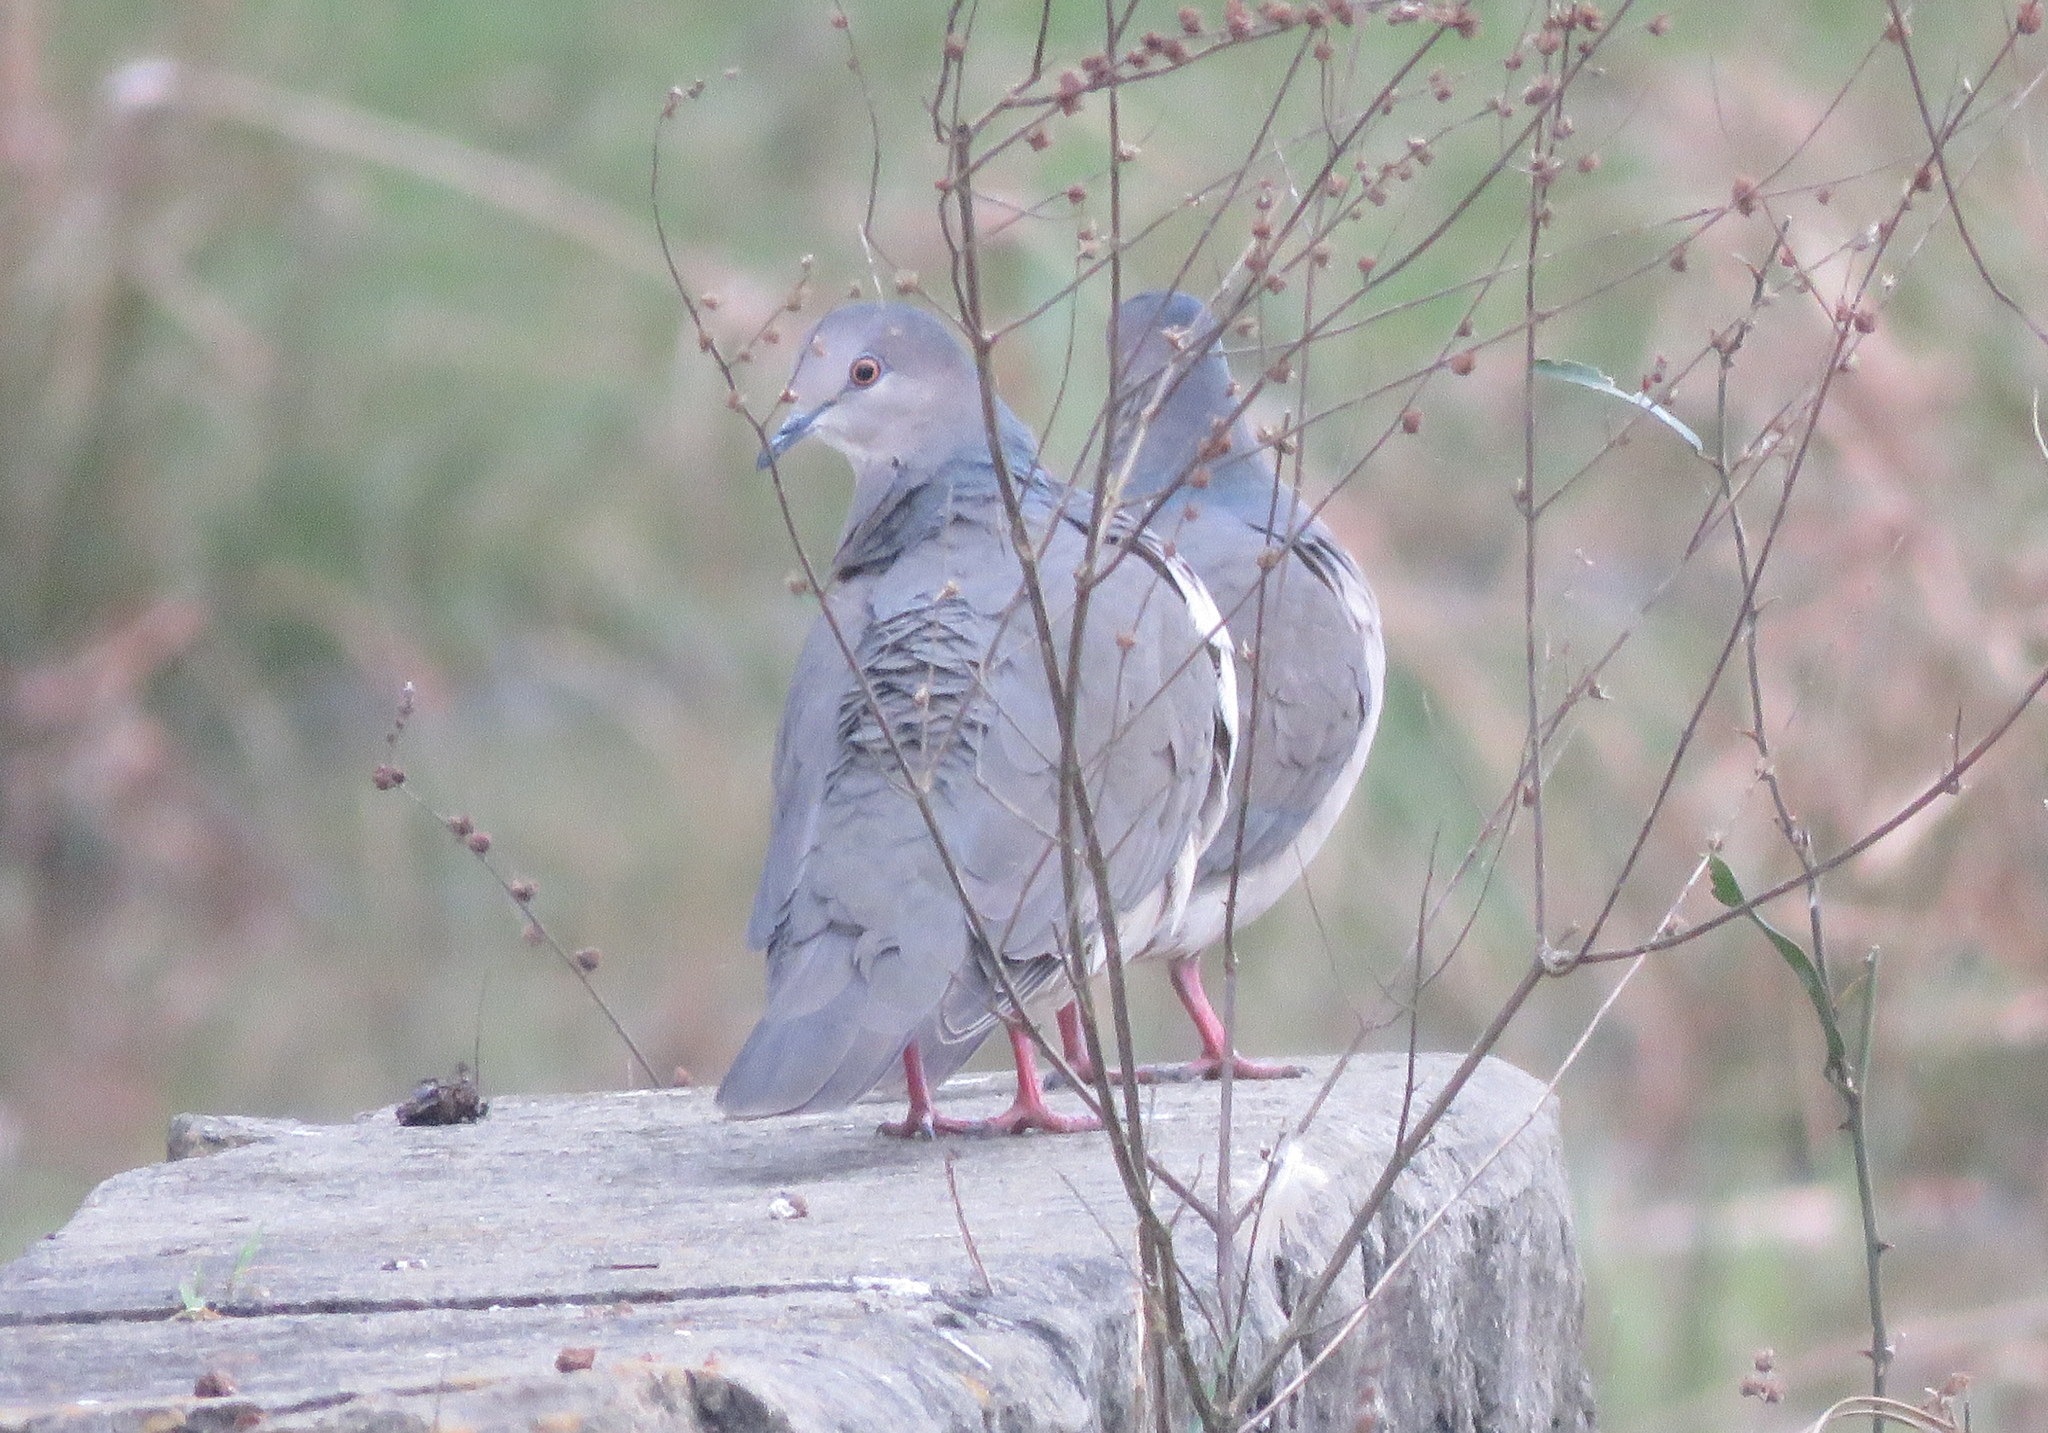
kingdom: Animalia
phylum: Chordata
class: Aves
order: Columbiformes
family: Columbidae
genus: Leptotila
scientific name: Leptotila verreauxi
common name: White-tipped dove
